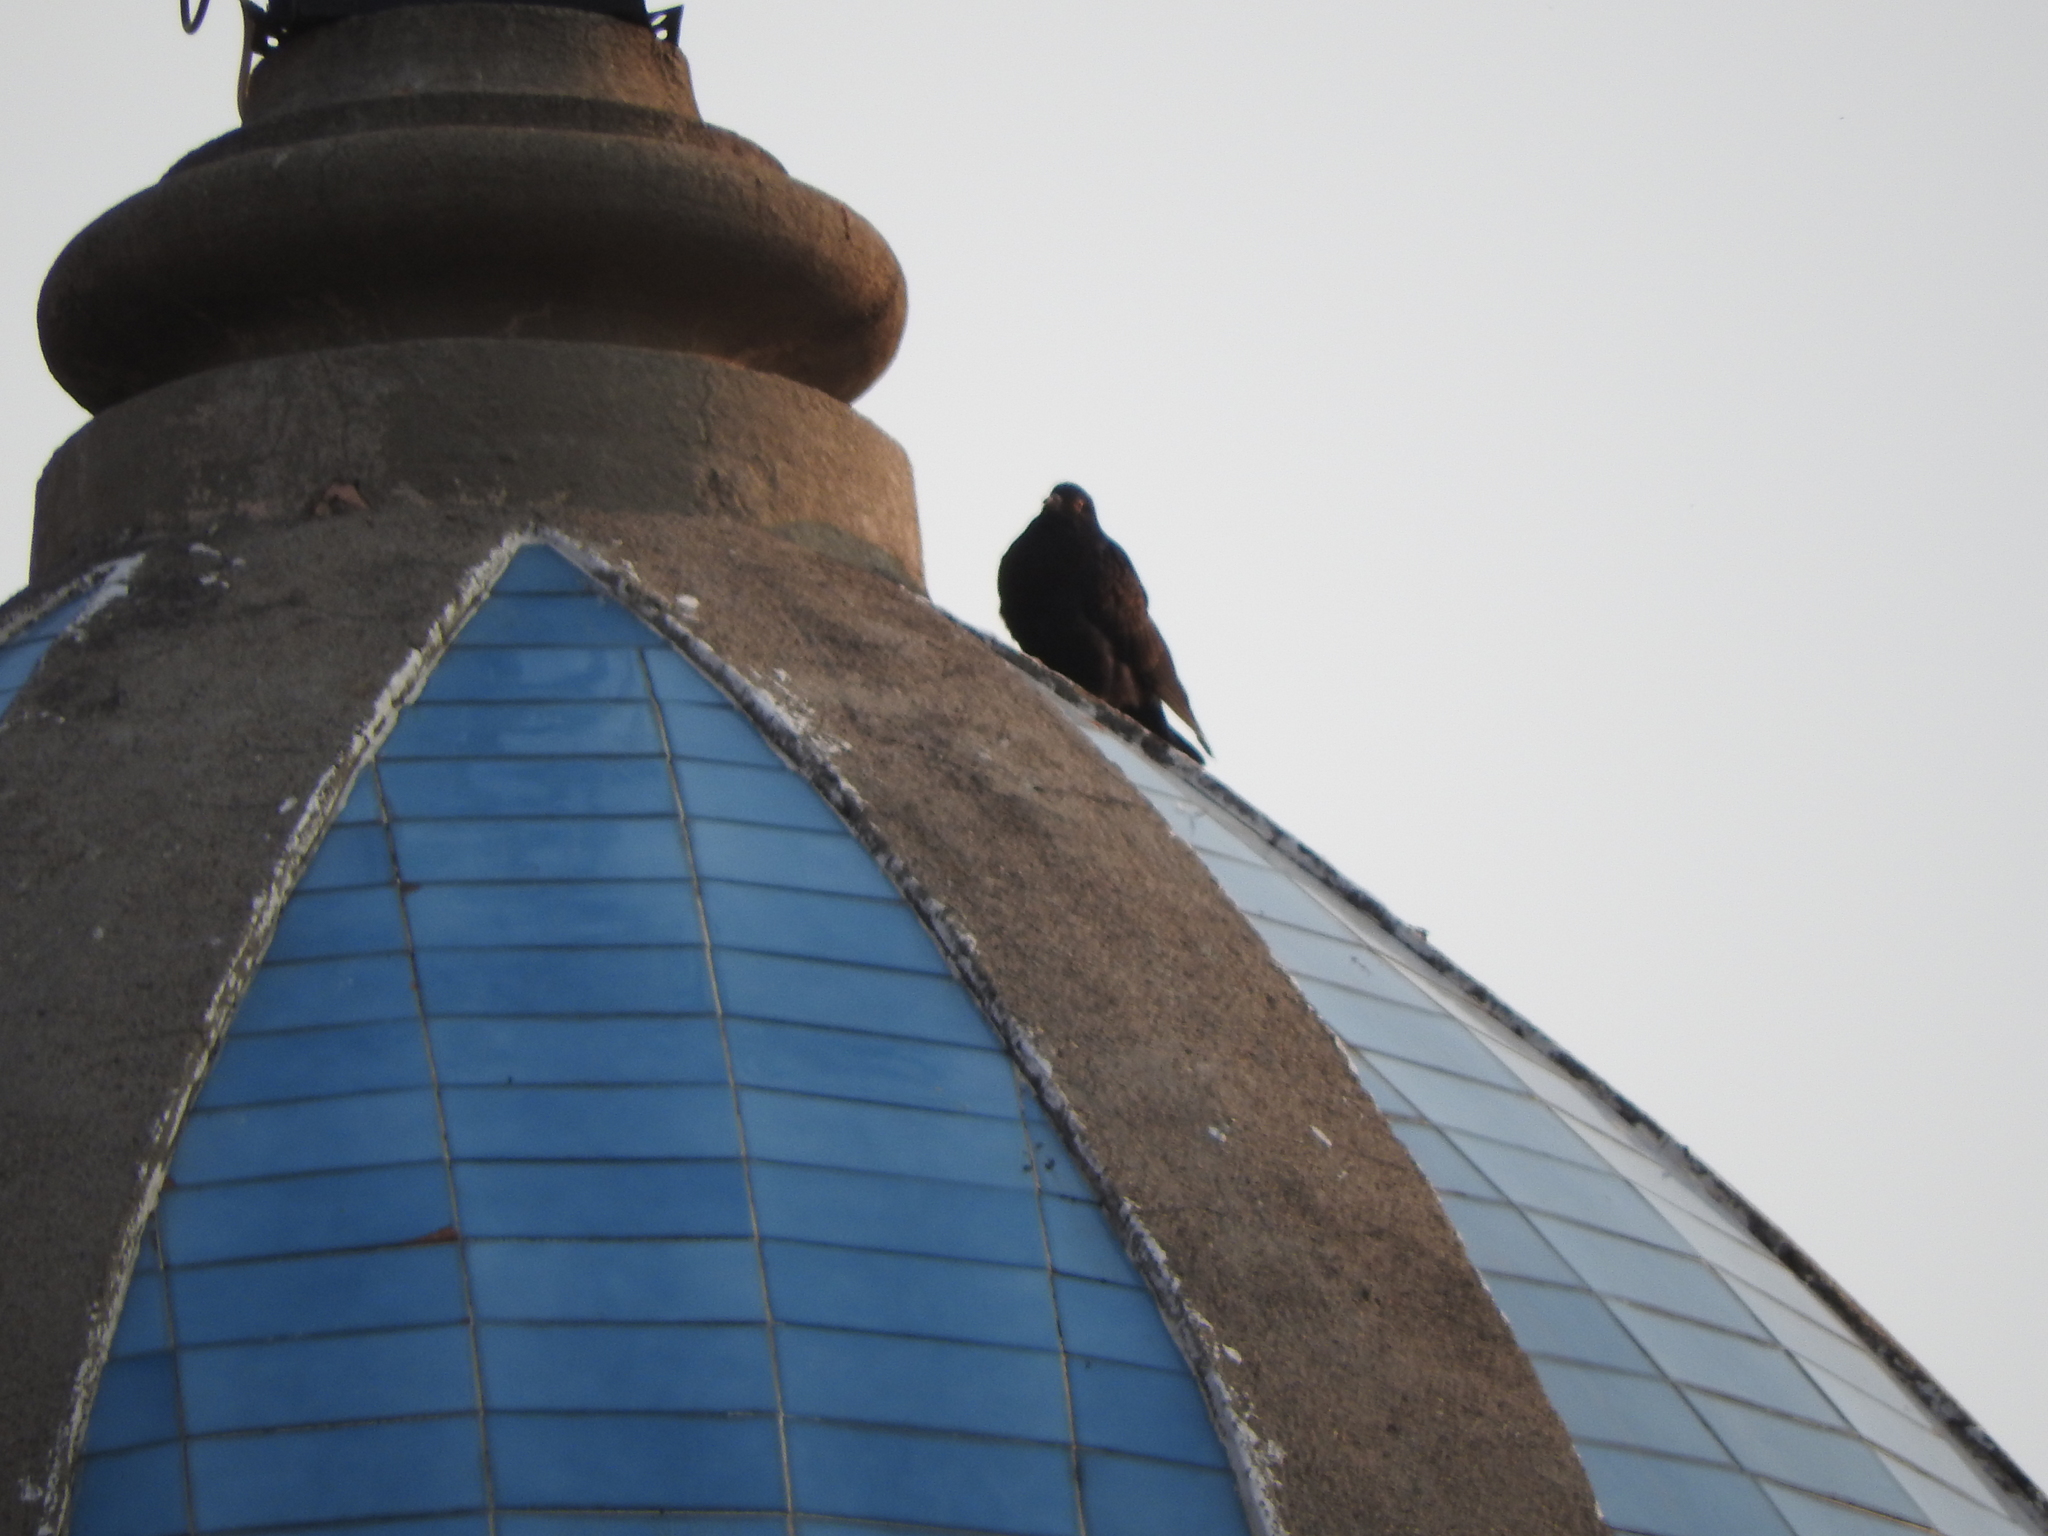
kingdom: Animalia
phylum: Chordata
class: Aves
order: Columbiformes
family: Columbidae
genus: Columba
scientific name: Columba livia
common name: Rock pigeon
